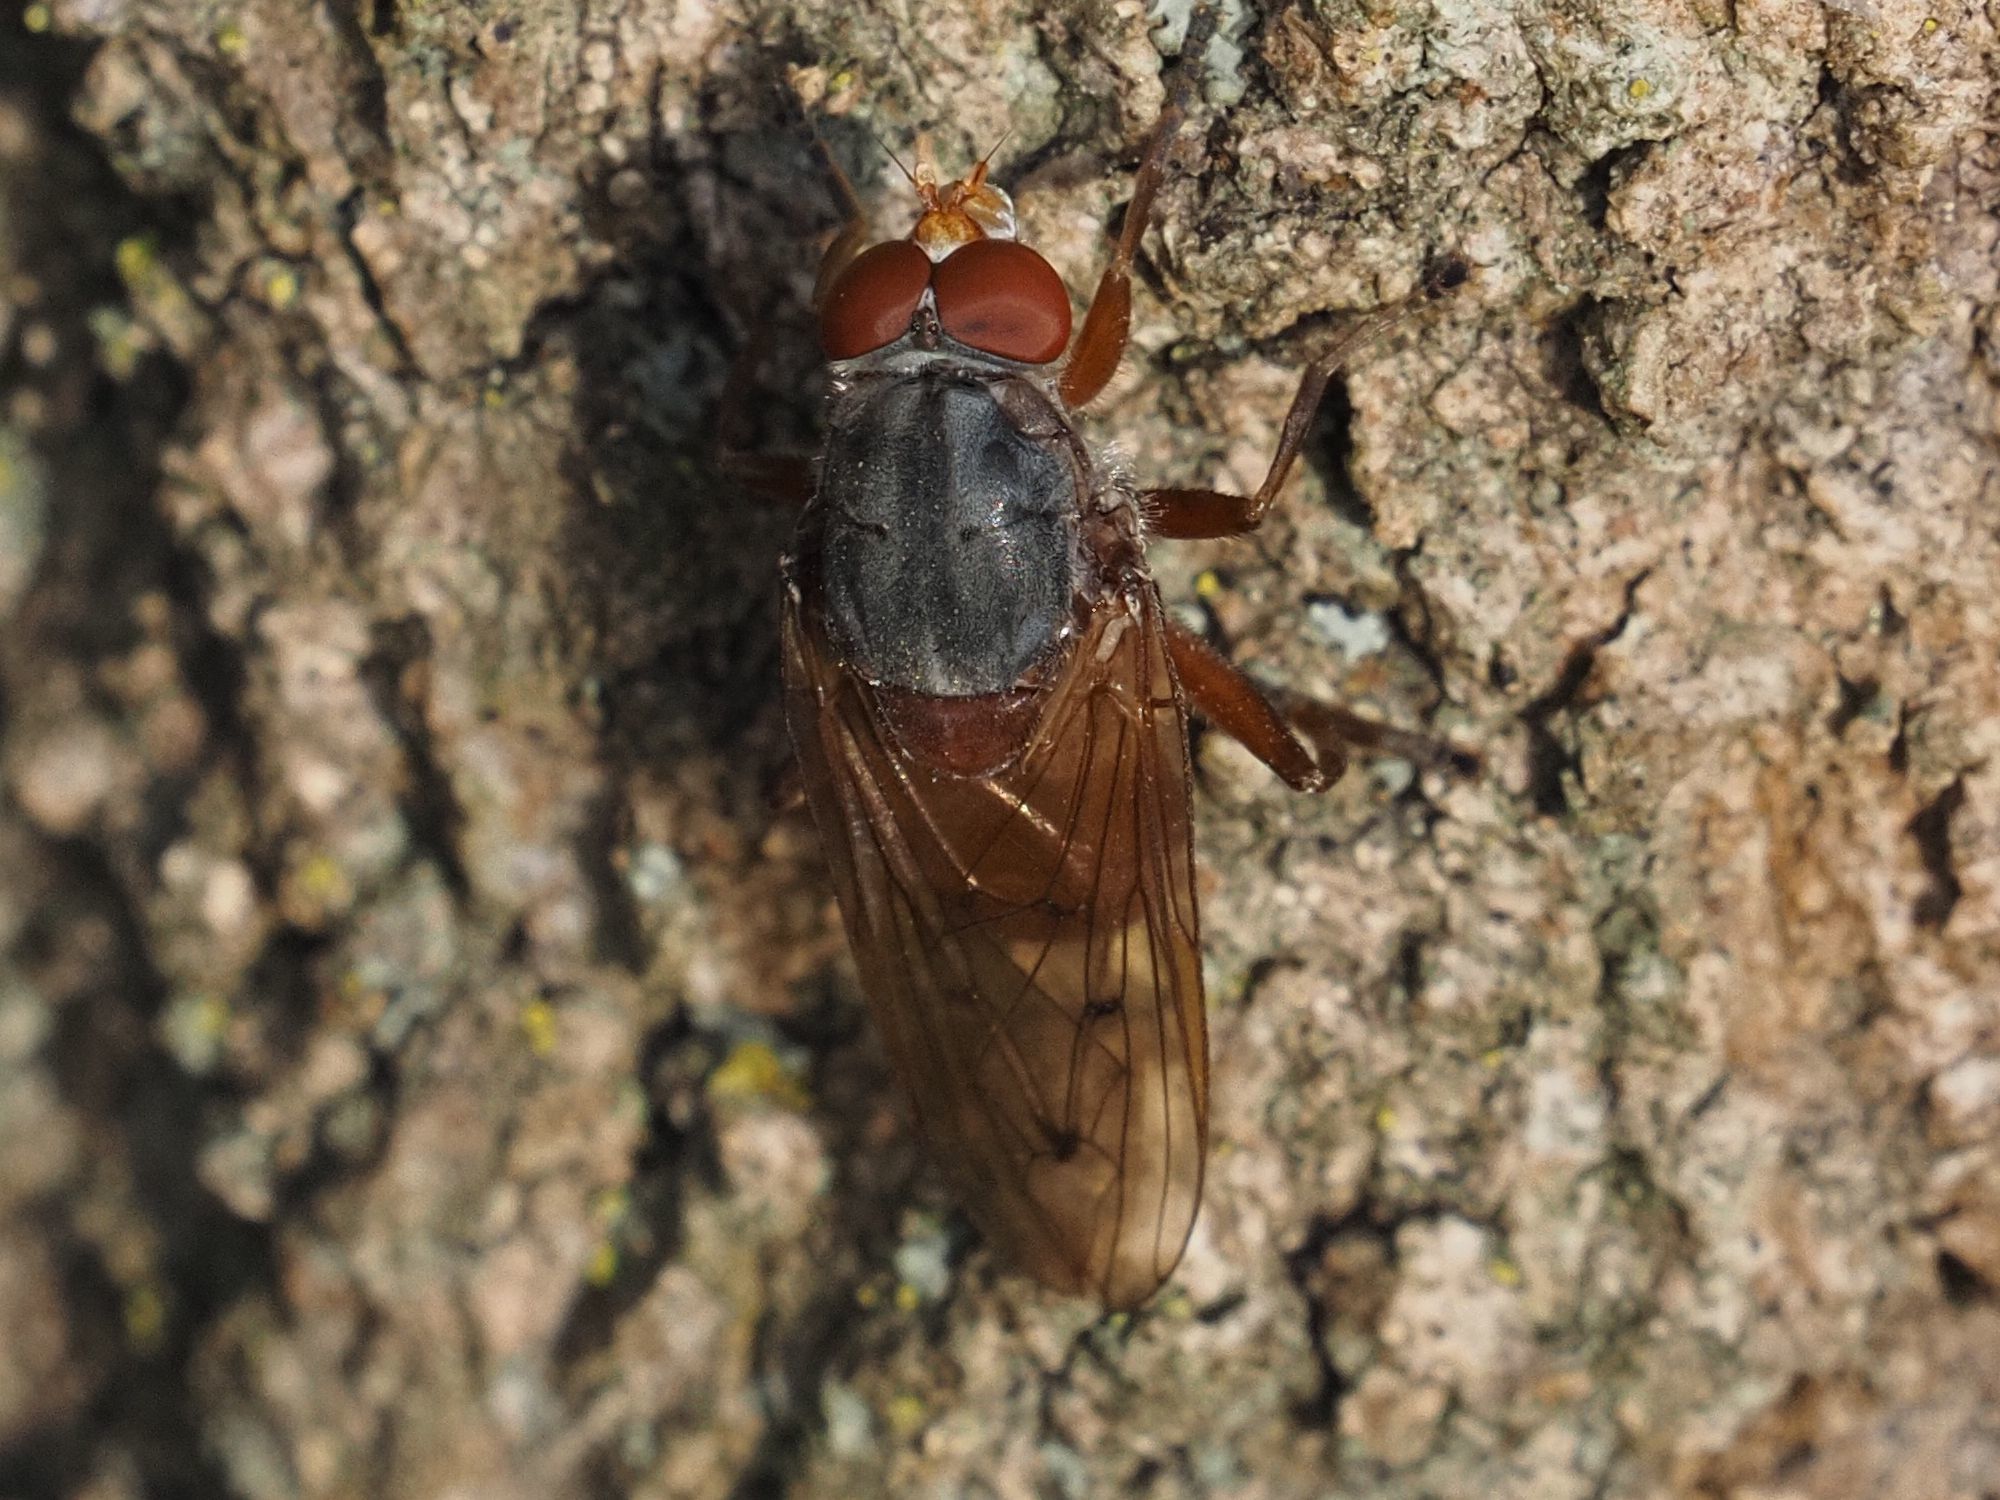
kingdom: Animalia
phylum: Arthropoda
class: Insecta
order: Diptera
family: Syrphidae
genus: Brachyopa
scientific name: Brachyopa maculipennis
